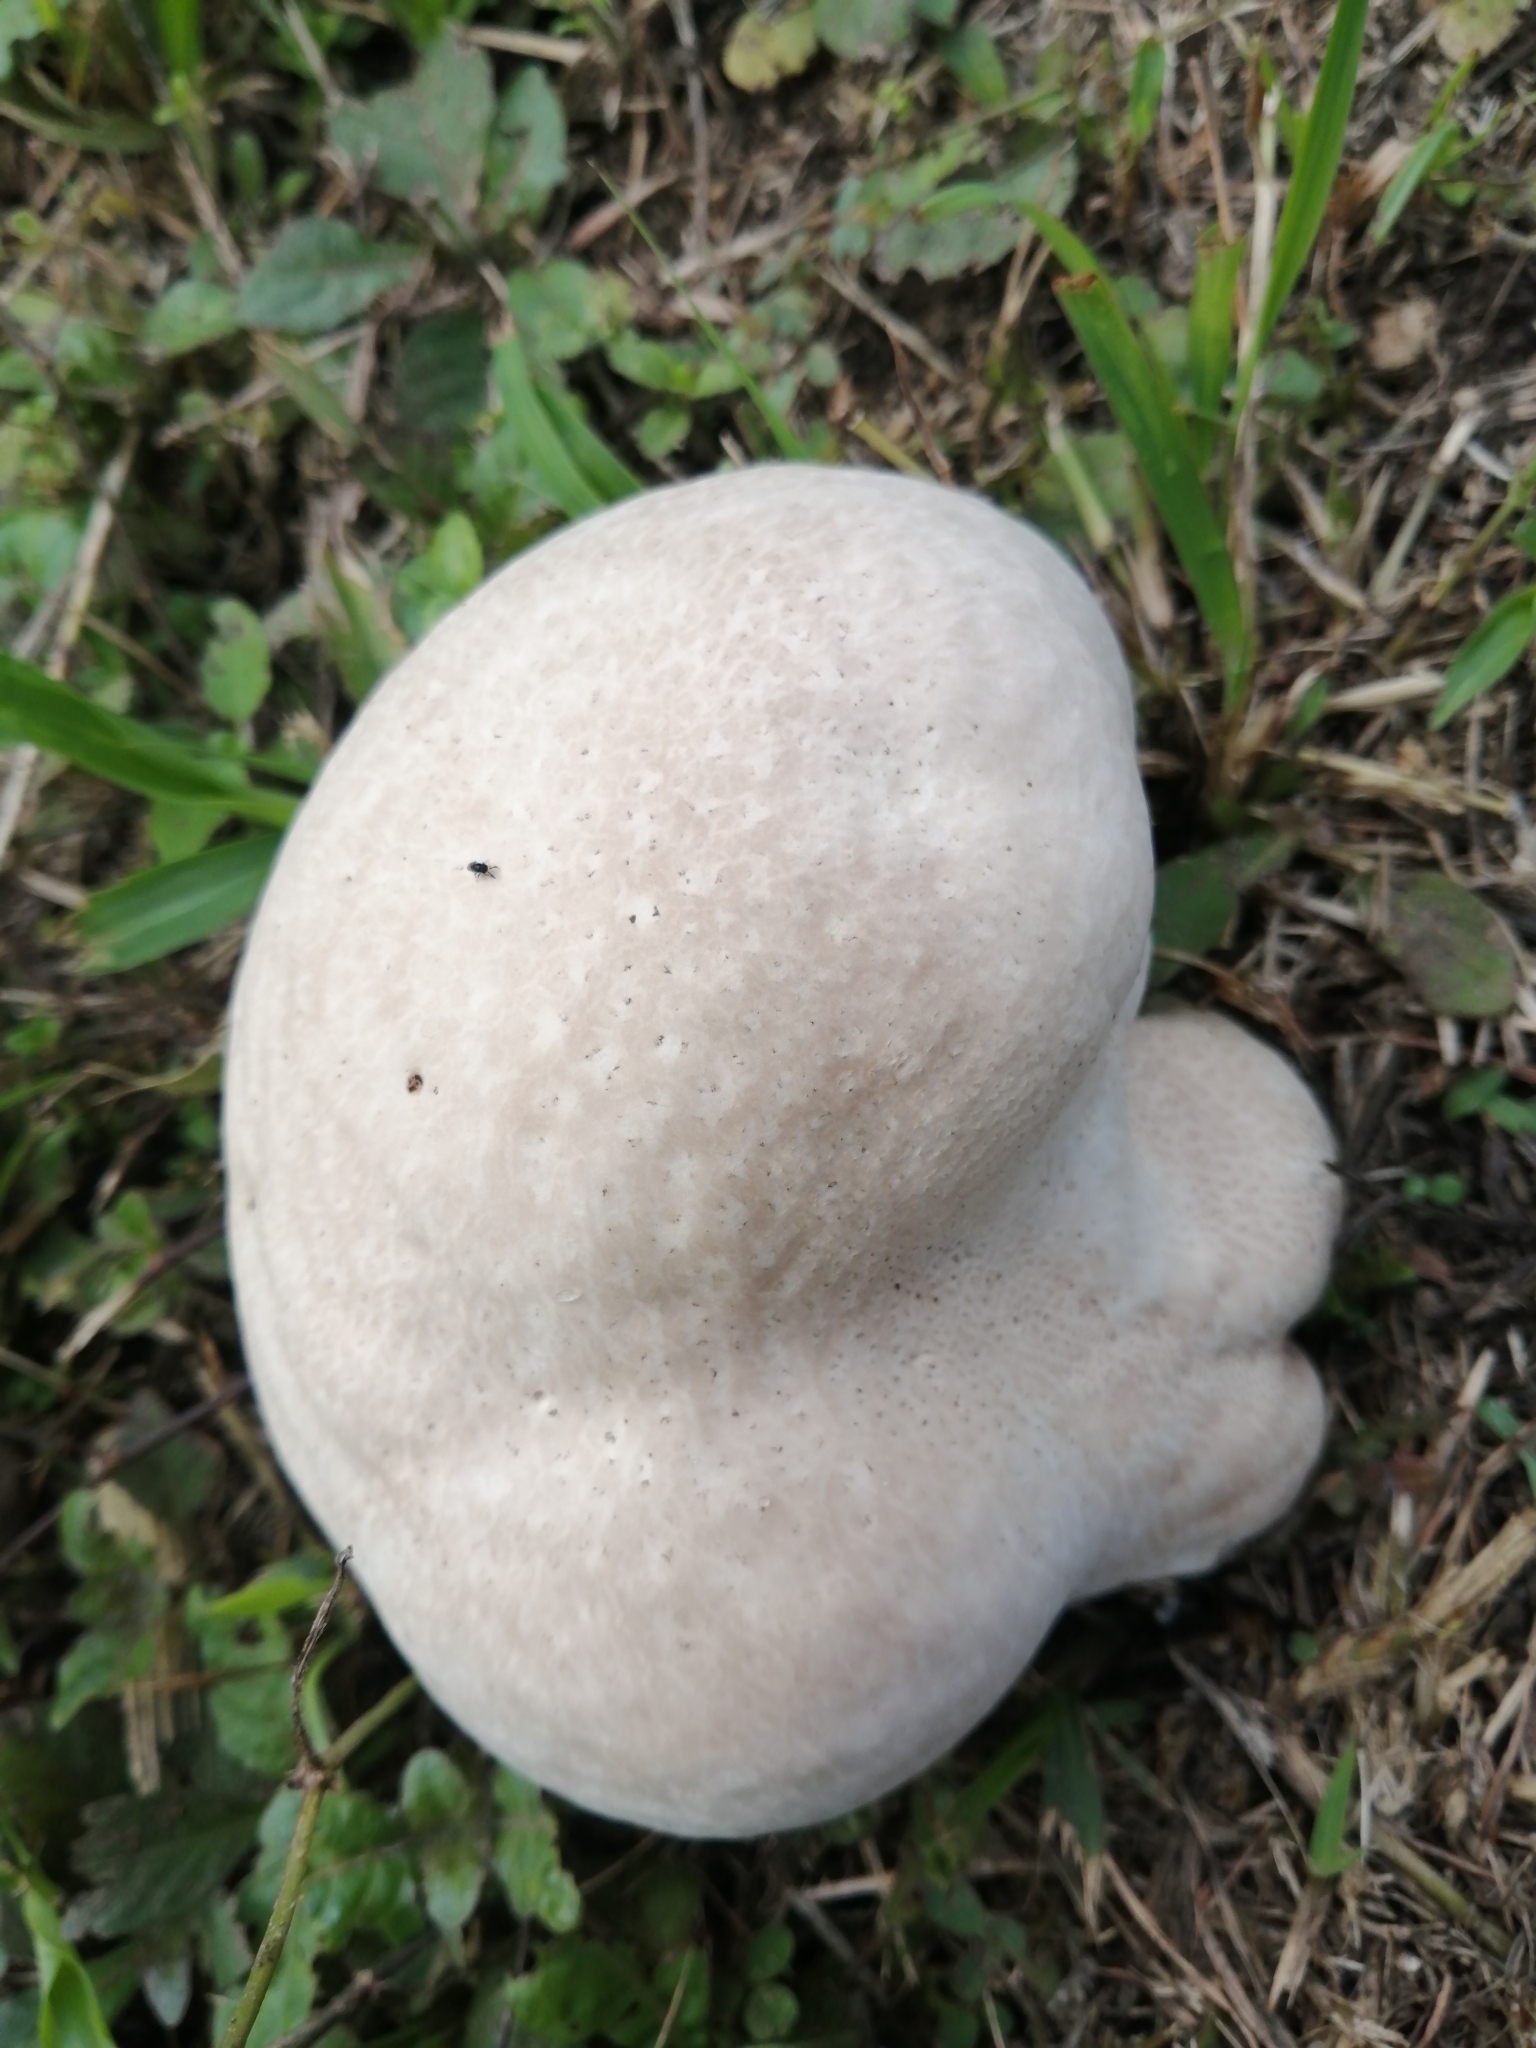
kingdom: Fungi
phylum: Basidiomycota
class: Agaricomycetes
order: Agaricales
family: Lycoperdaceae
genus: Calvatia
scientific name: Calvatia craniiformis
